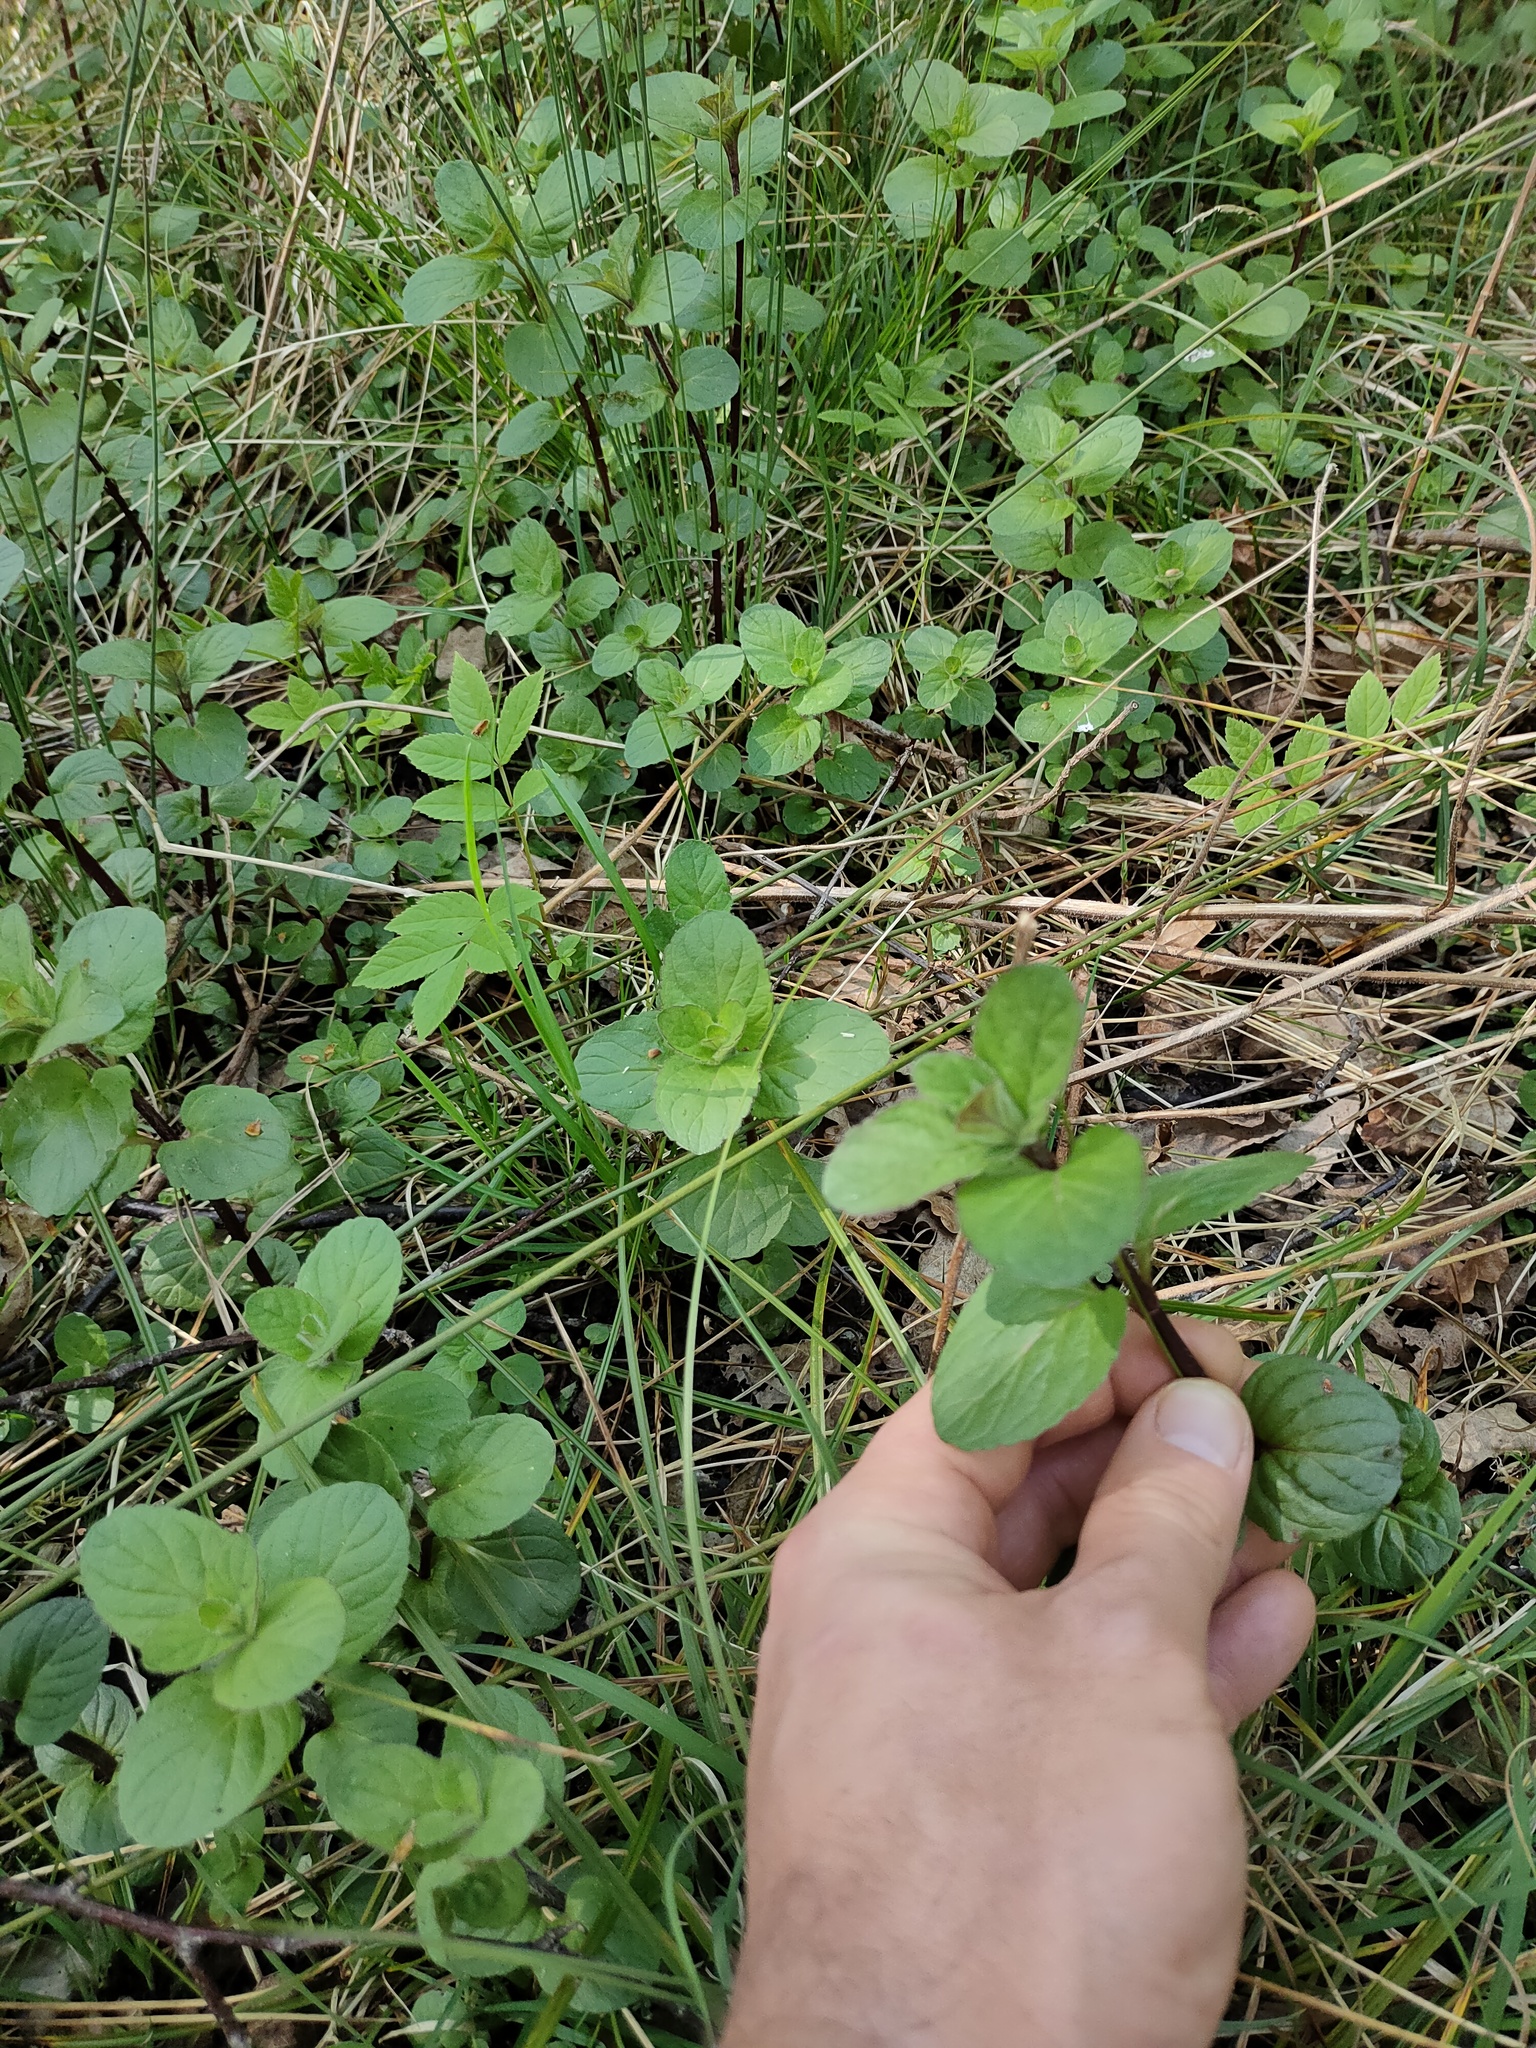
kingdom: Plantae
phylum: Tracheophyta
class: Magnoliopsida
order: Lamiales
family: Lamiaceae
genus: Mentha
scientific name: Mentha aquatica
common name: Water mint
